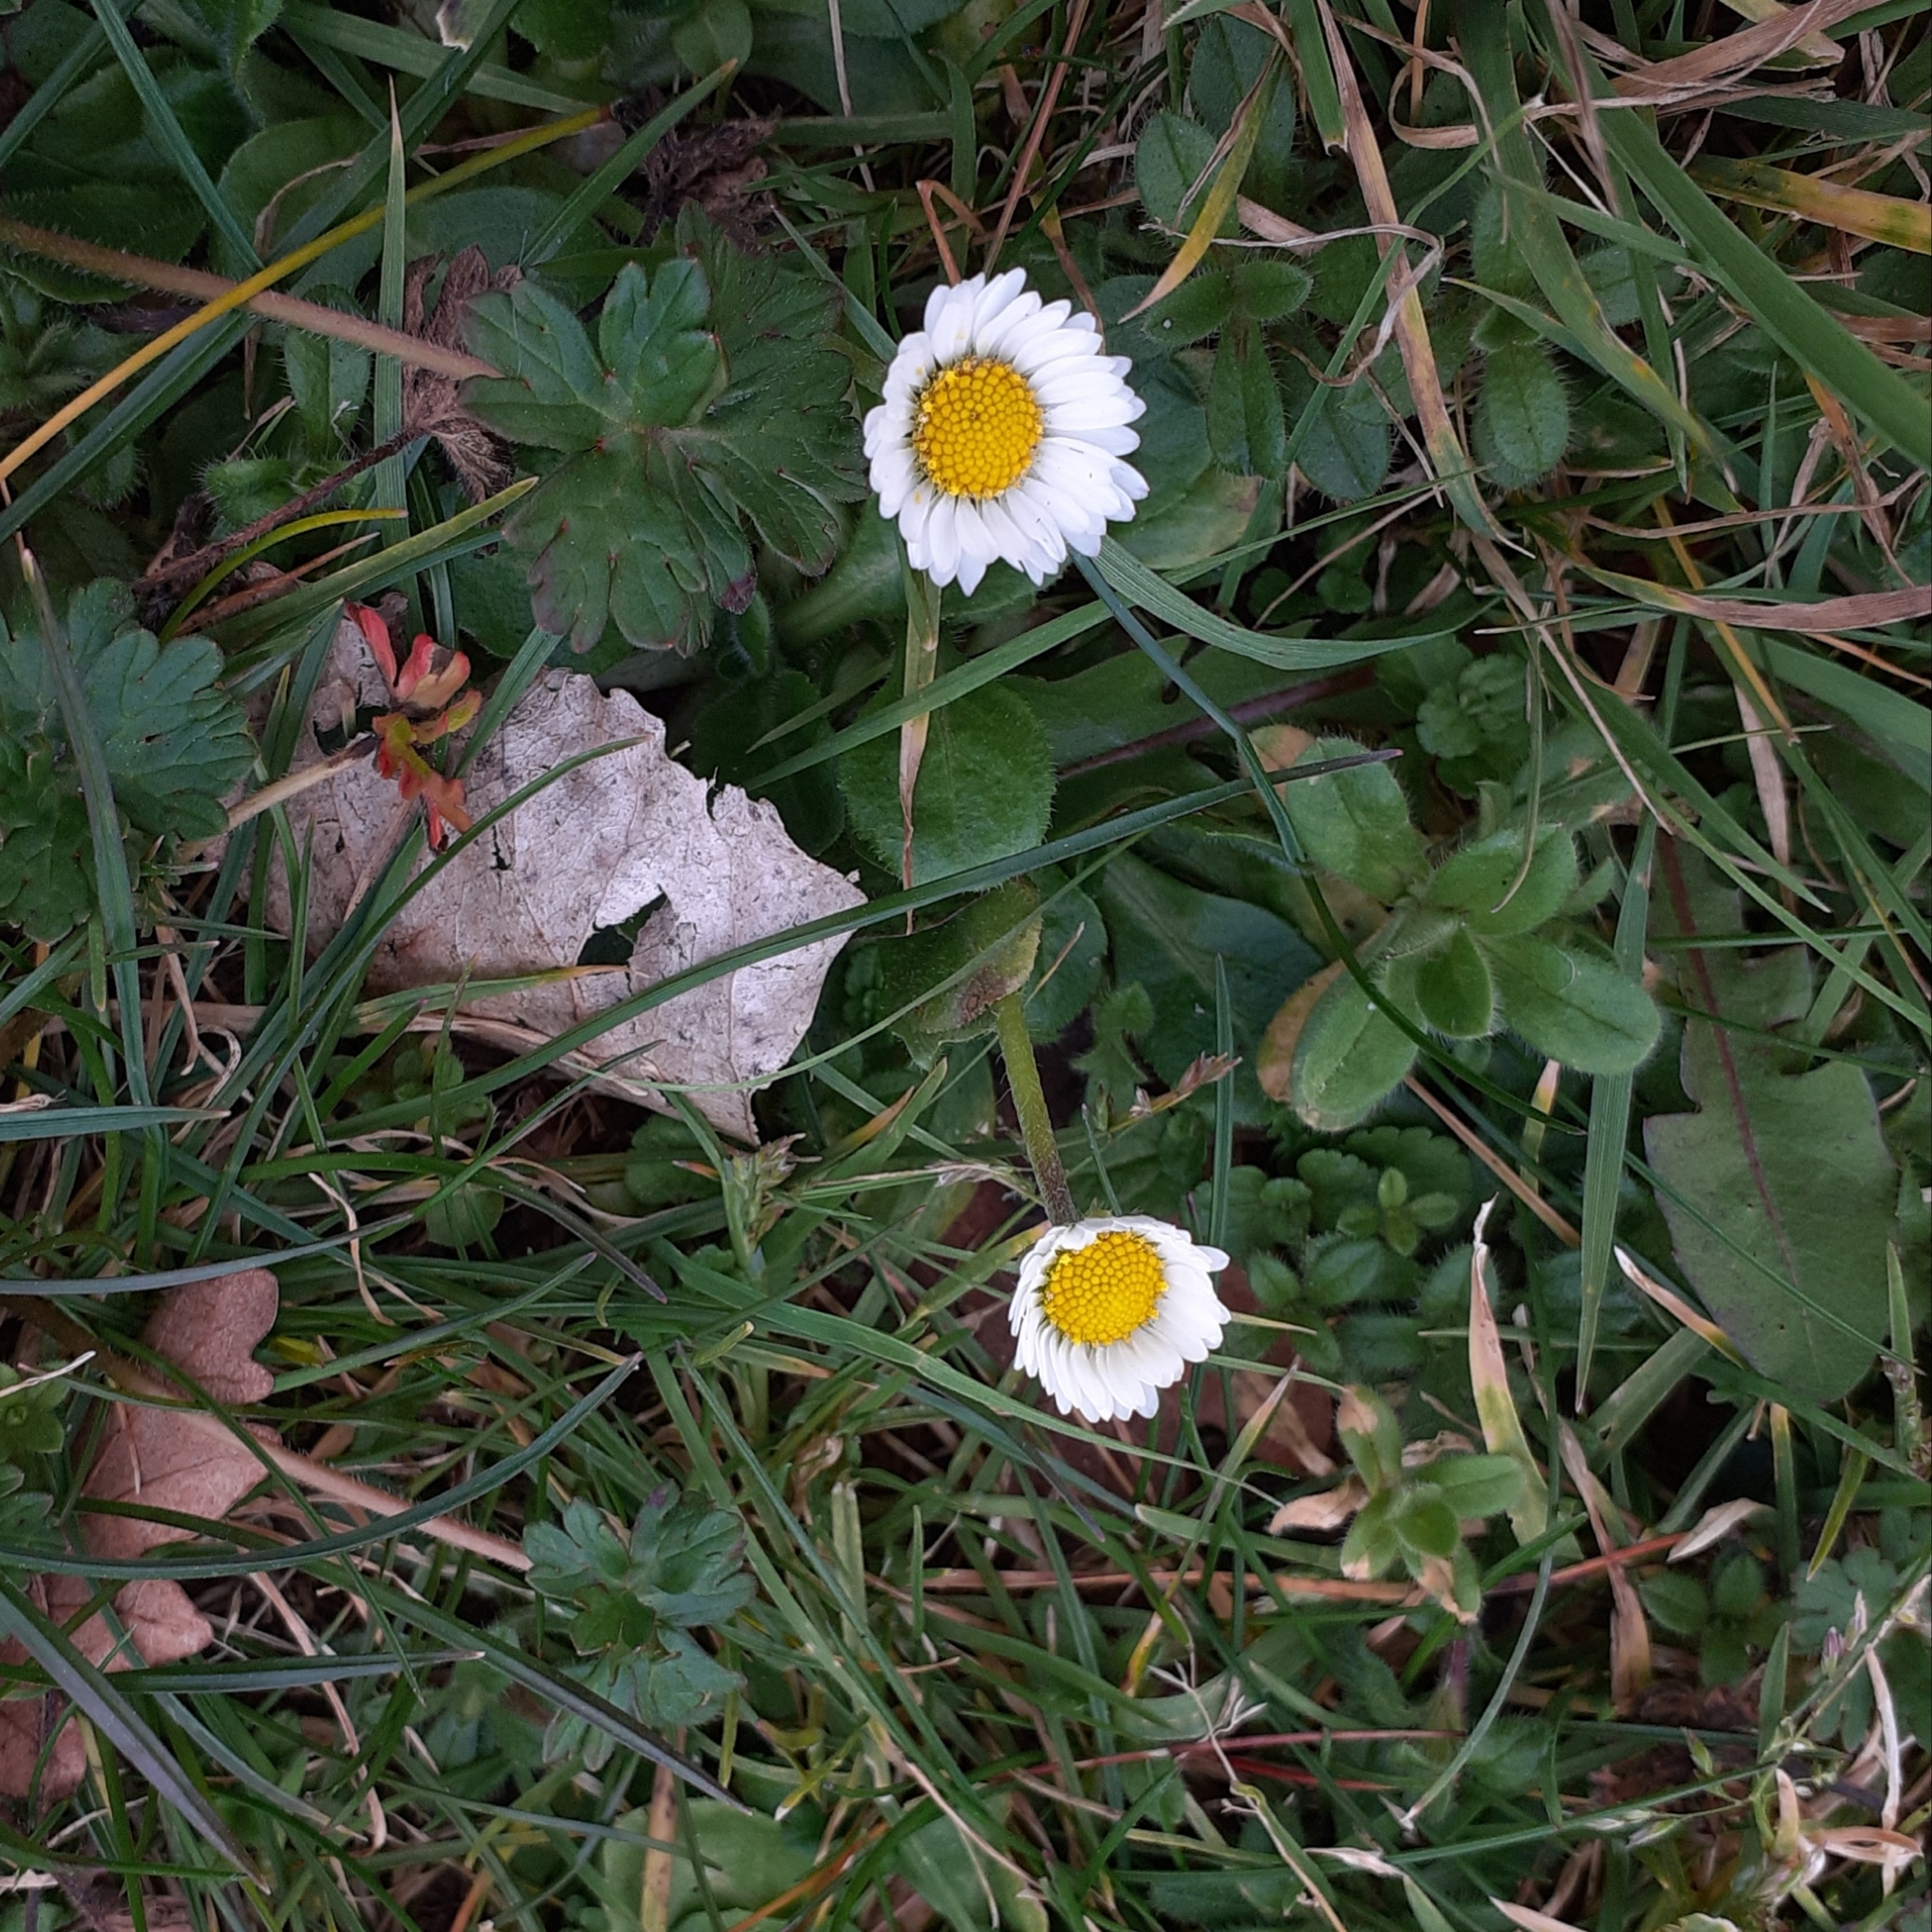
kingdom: Plantae
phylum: Tracheophyta
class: Magnoliopsida
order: Asterales
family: Asteraceae
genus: Bellis
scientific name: Bellis perennis
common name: Lawndaisy
